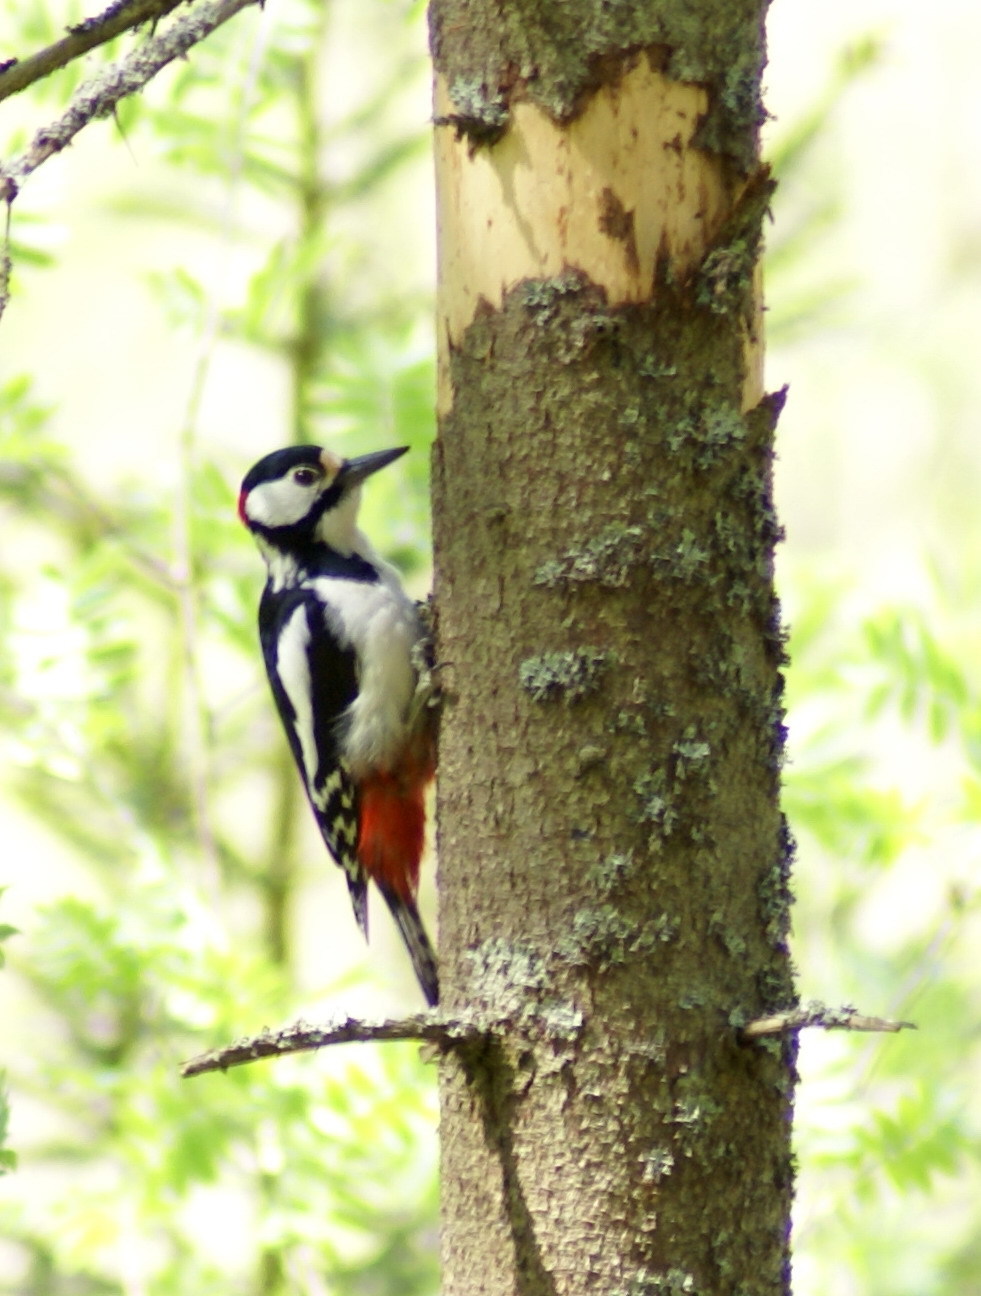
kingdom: Animalia
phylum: Chordata
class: Aves
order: Piciformes
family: Picidae
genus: Dendrocopos
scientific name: Dendrocopos major
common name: Great spotted woodpecker
